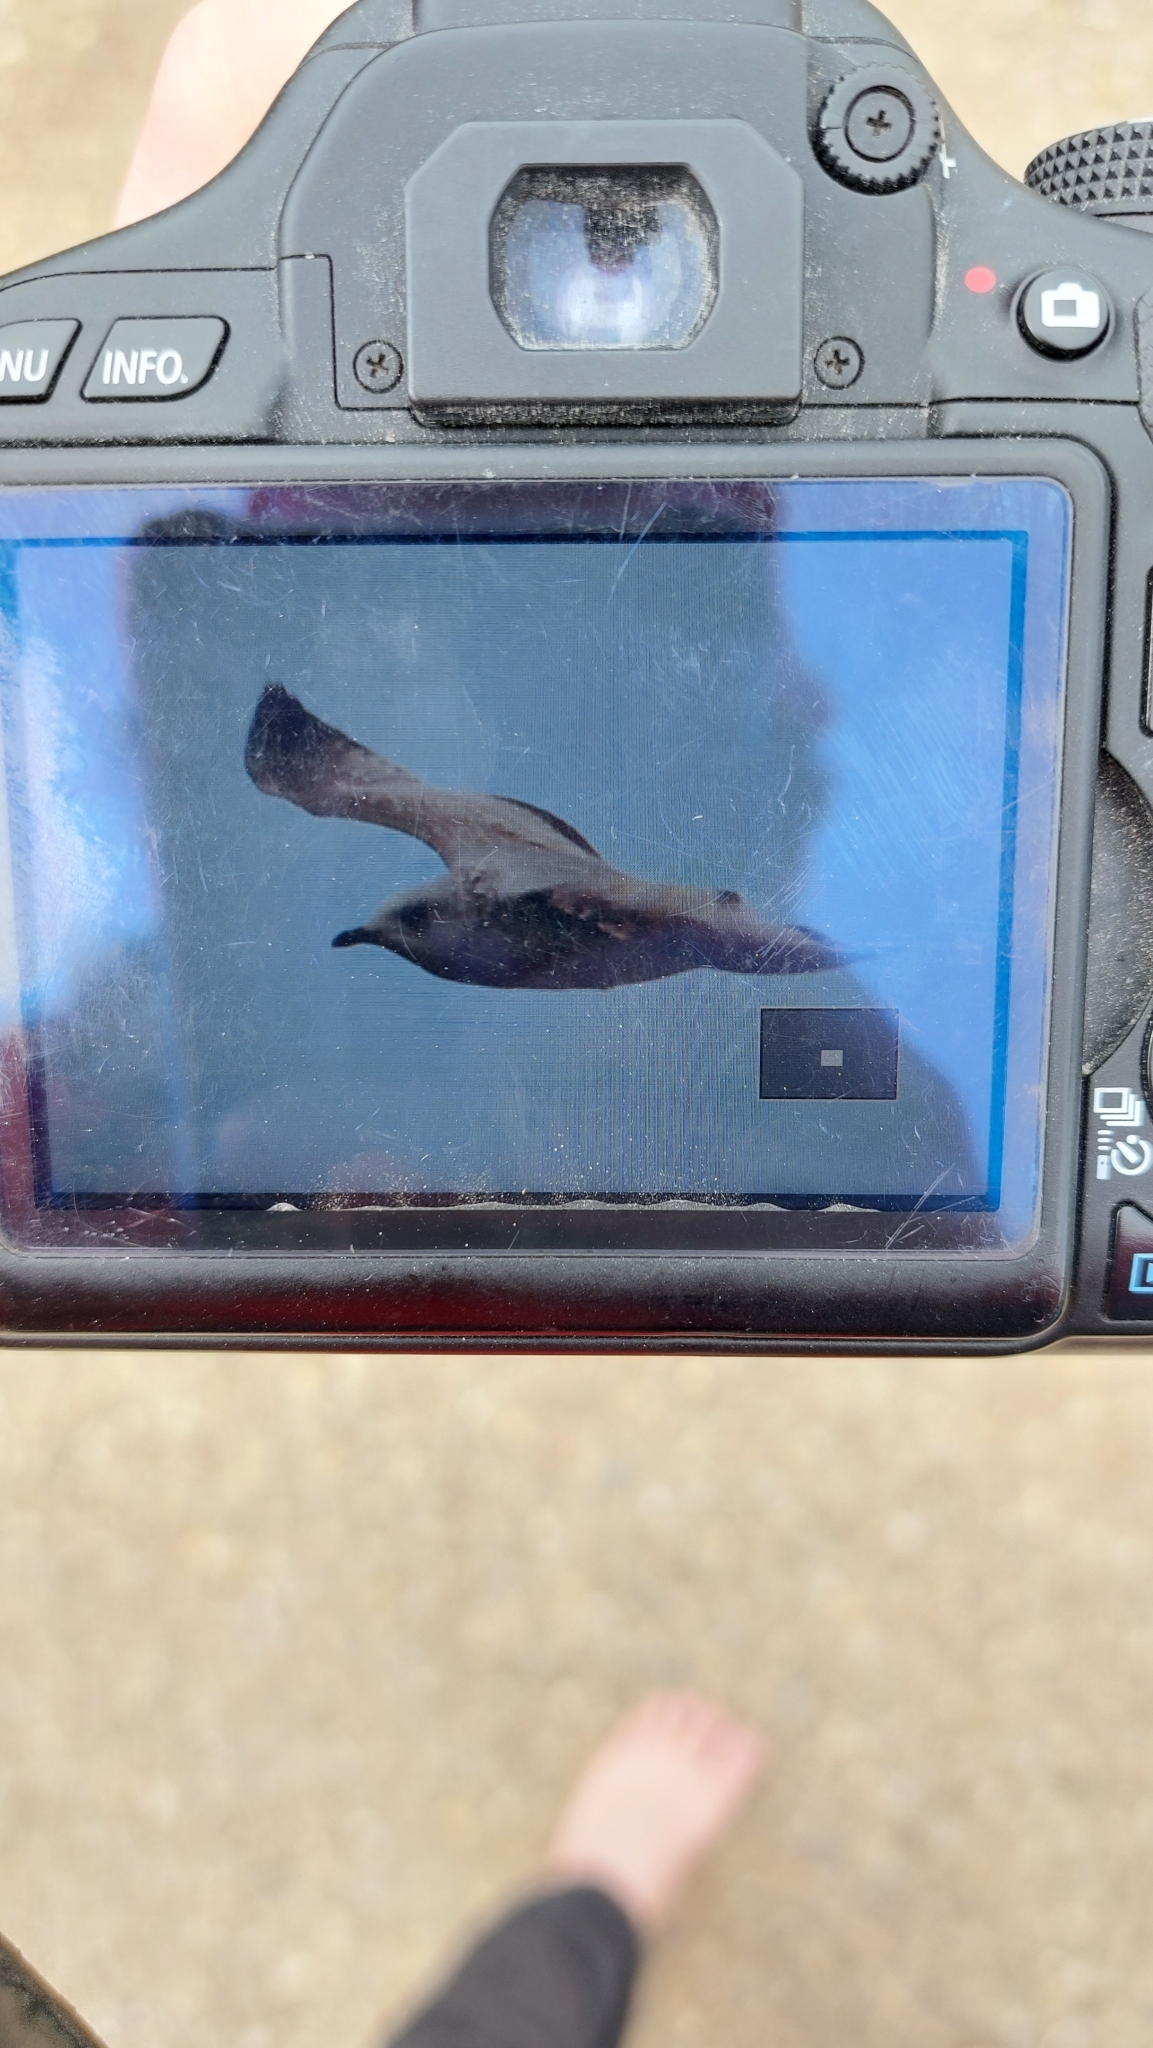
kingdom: Animalia
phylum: Chordata
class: Aves
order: Charadriiformes
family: Laridae
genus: Larus
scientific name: Larus canus
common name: Mew gull
